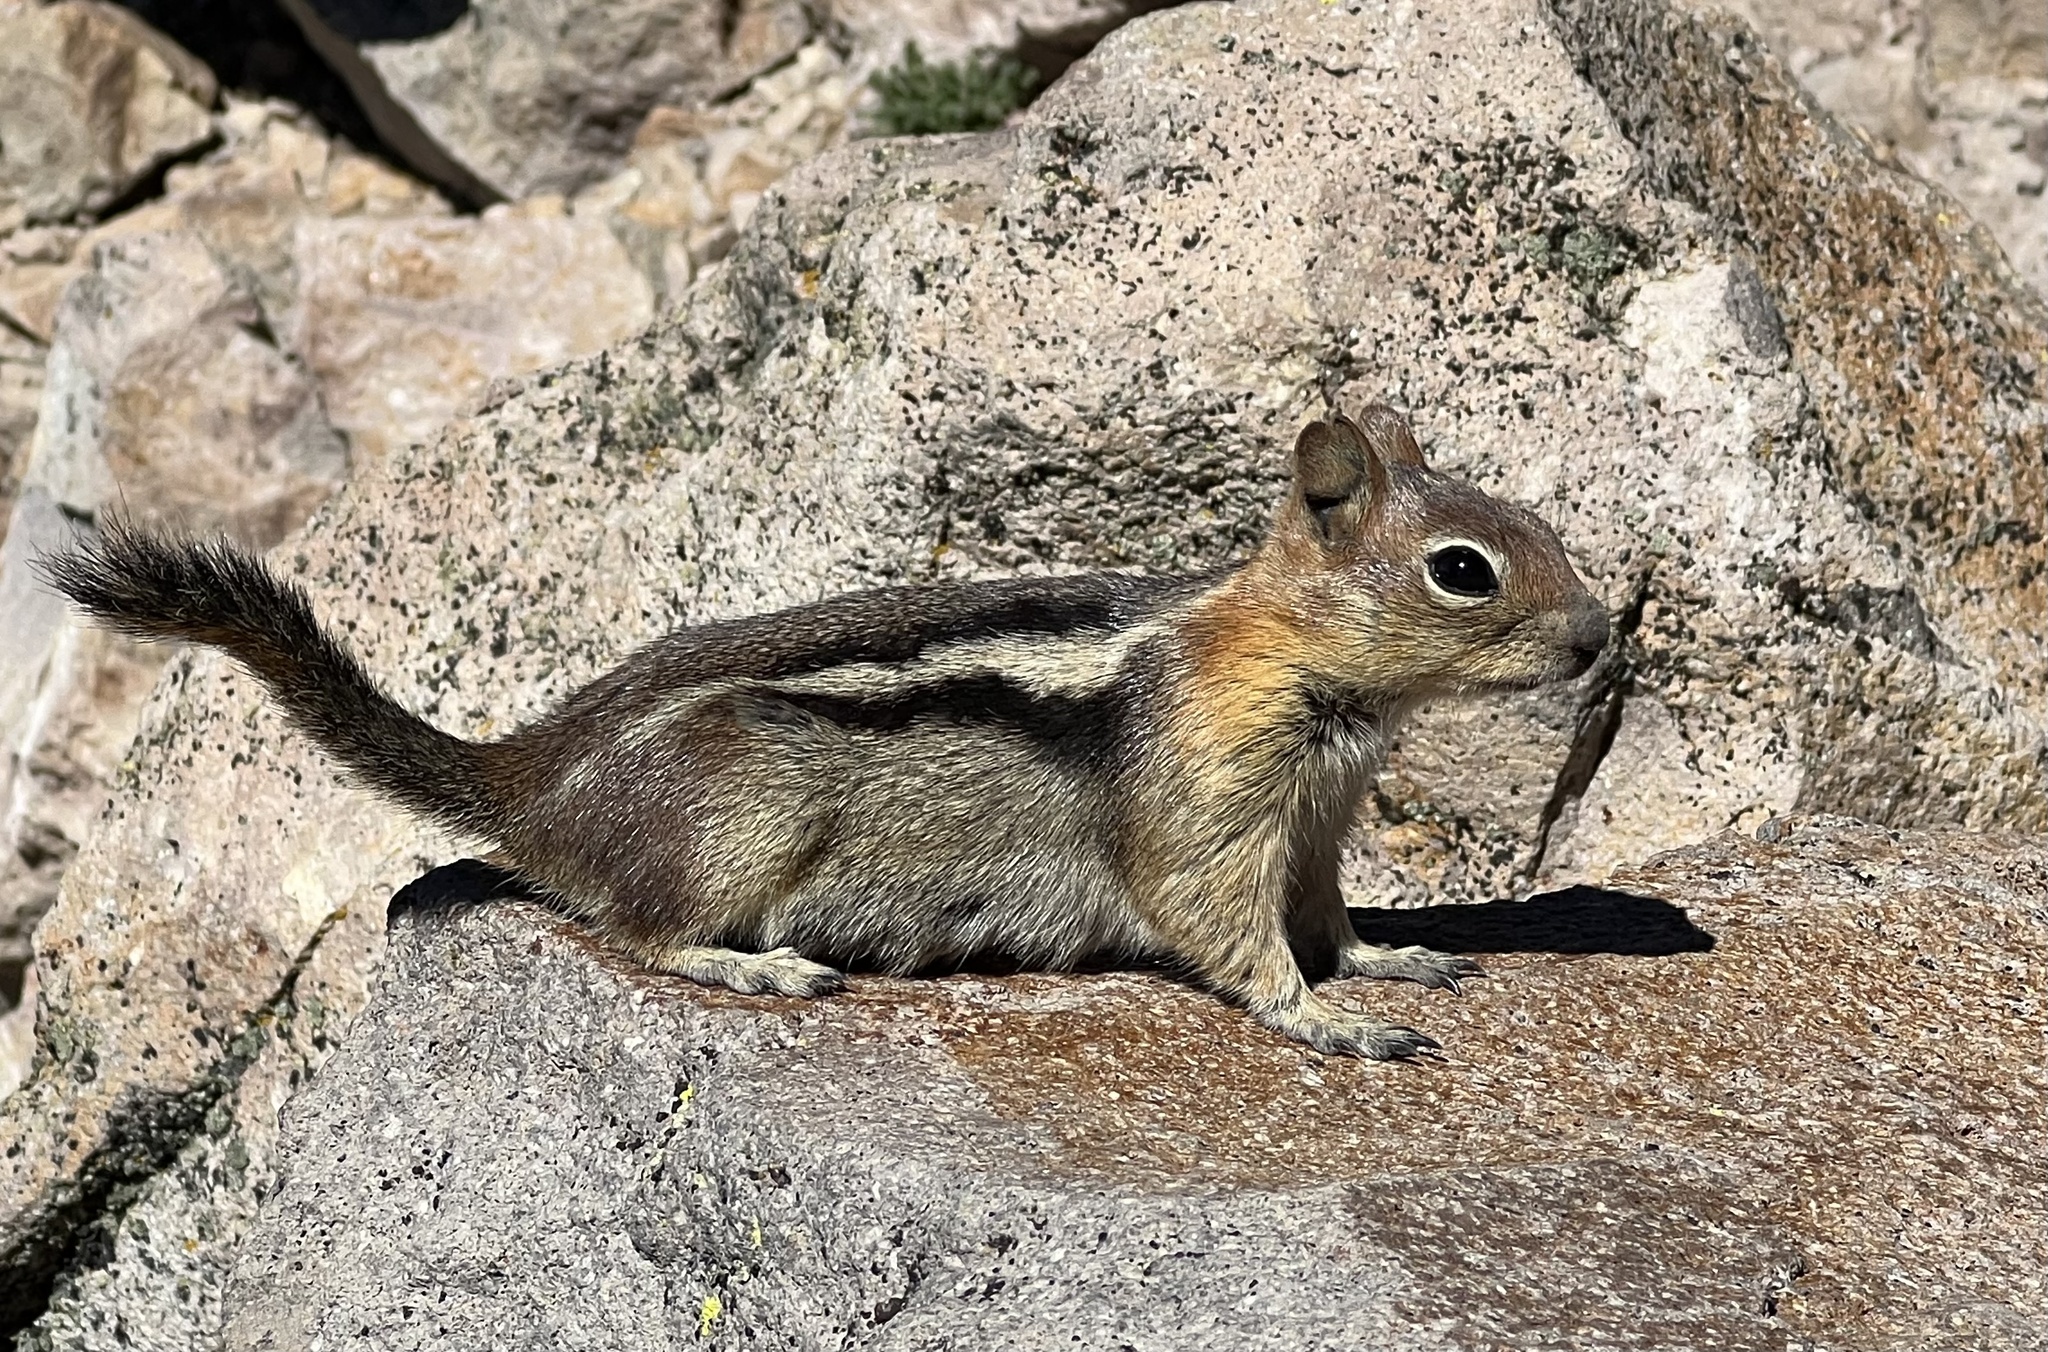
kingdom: Animalia
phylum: Chordata
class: Mammalia
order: Rodentia
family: Sciuridae
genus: Callospermophilus
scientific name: Callospermophilus lateralis
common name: Golden-mantled ground squirrel
